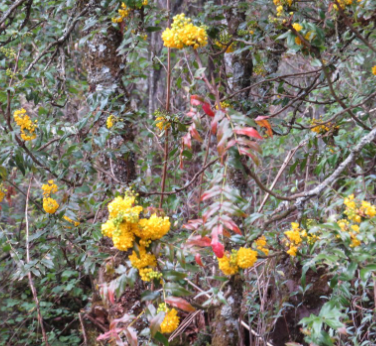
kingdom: Plantae
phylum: Tracheophyta
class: Magnoliopsida
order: Ranunculales
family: Berberidaceae
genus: Mahonia
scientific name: Mahonia moranensis
